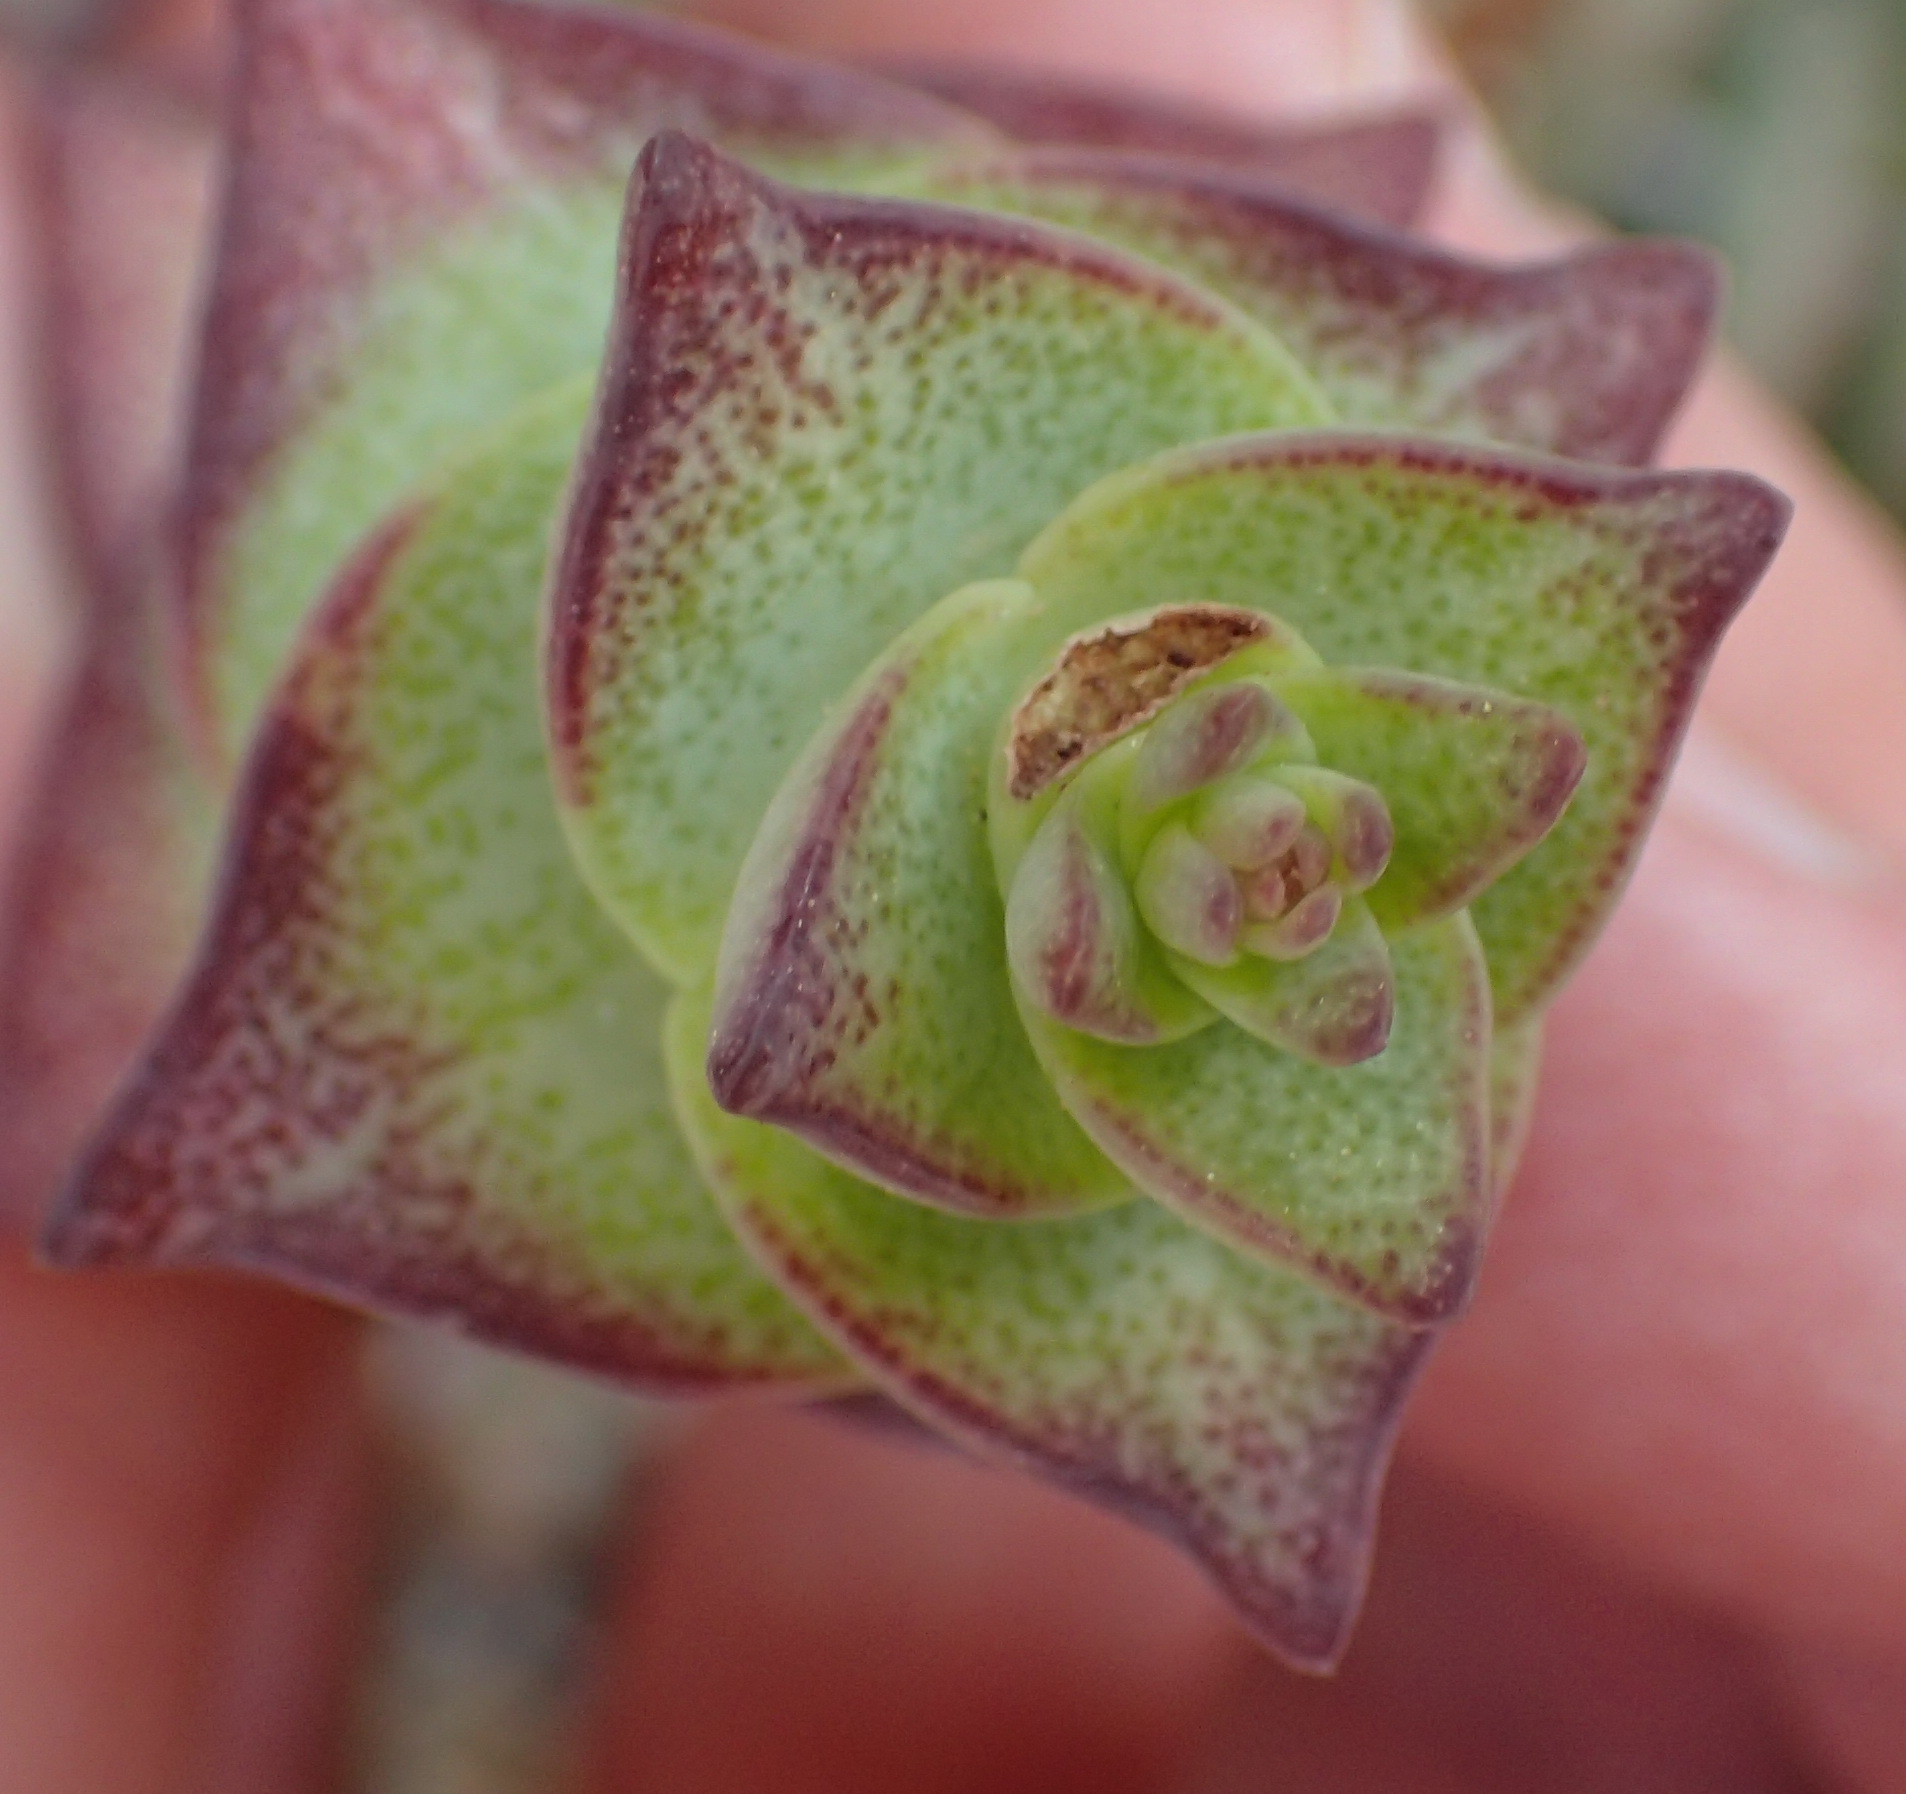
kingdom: Plantae
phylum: Tracheophyta
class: Magnoliopsida
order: Saxifragales
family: Crassulaceae
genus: Crassula
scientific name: Crassula perforata
